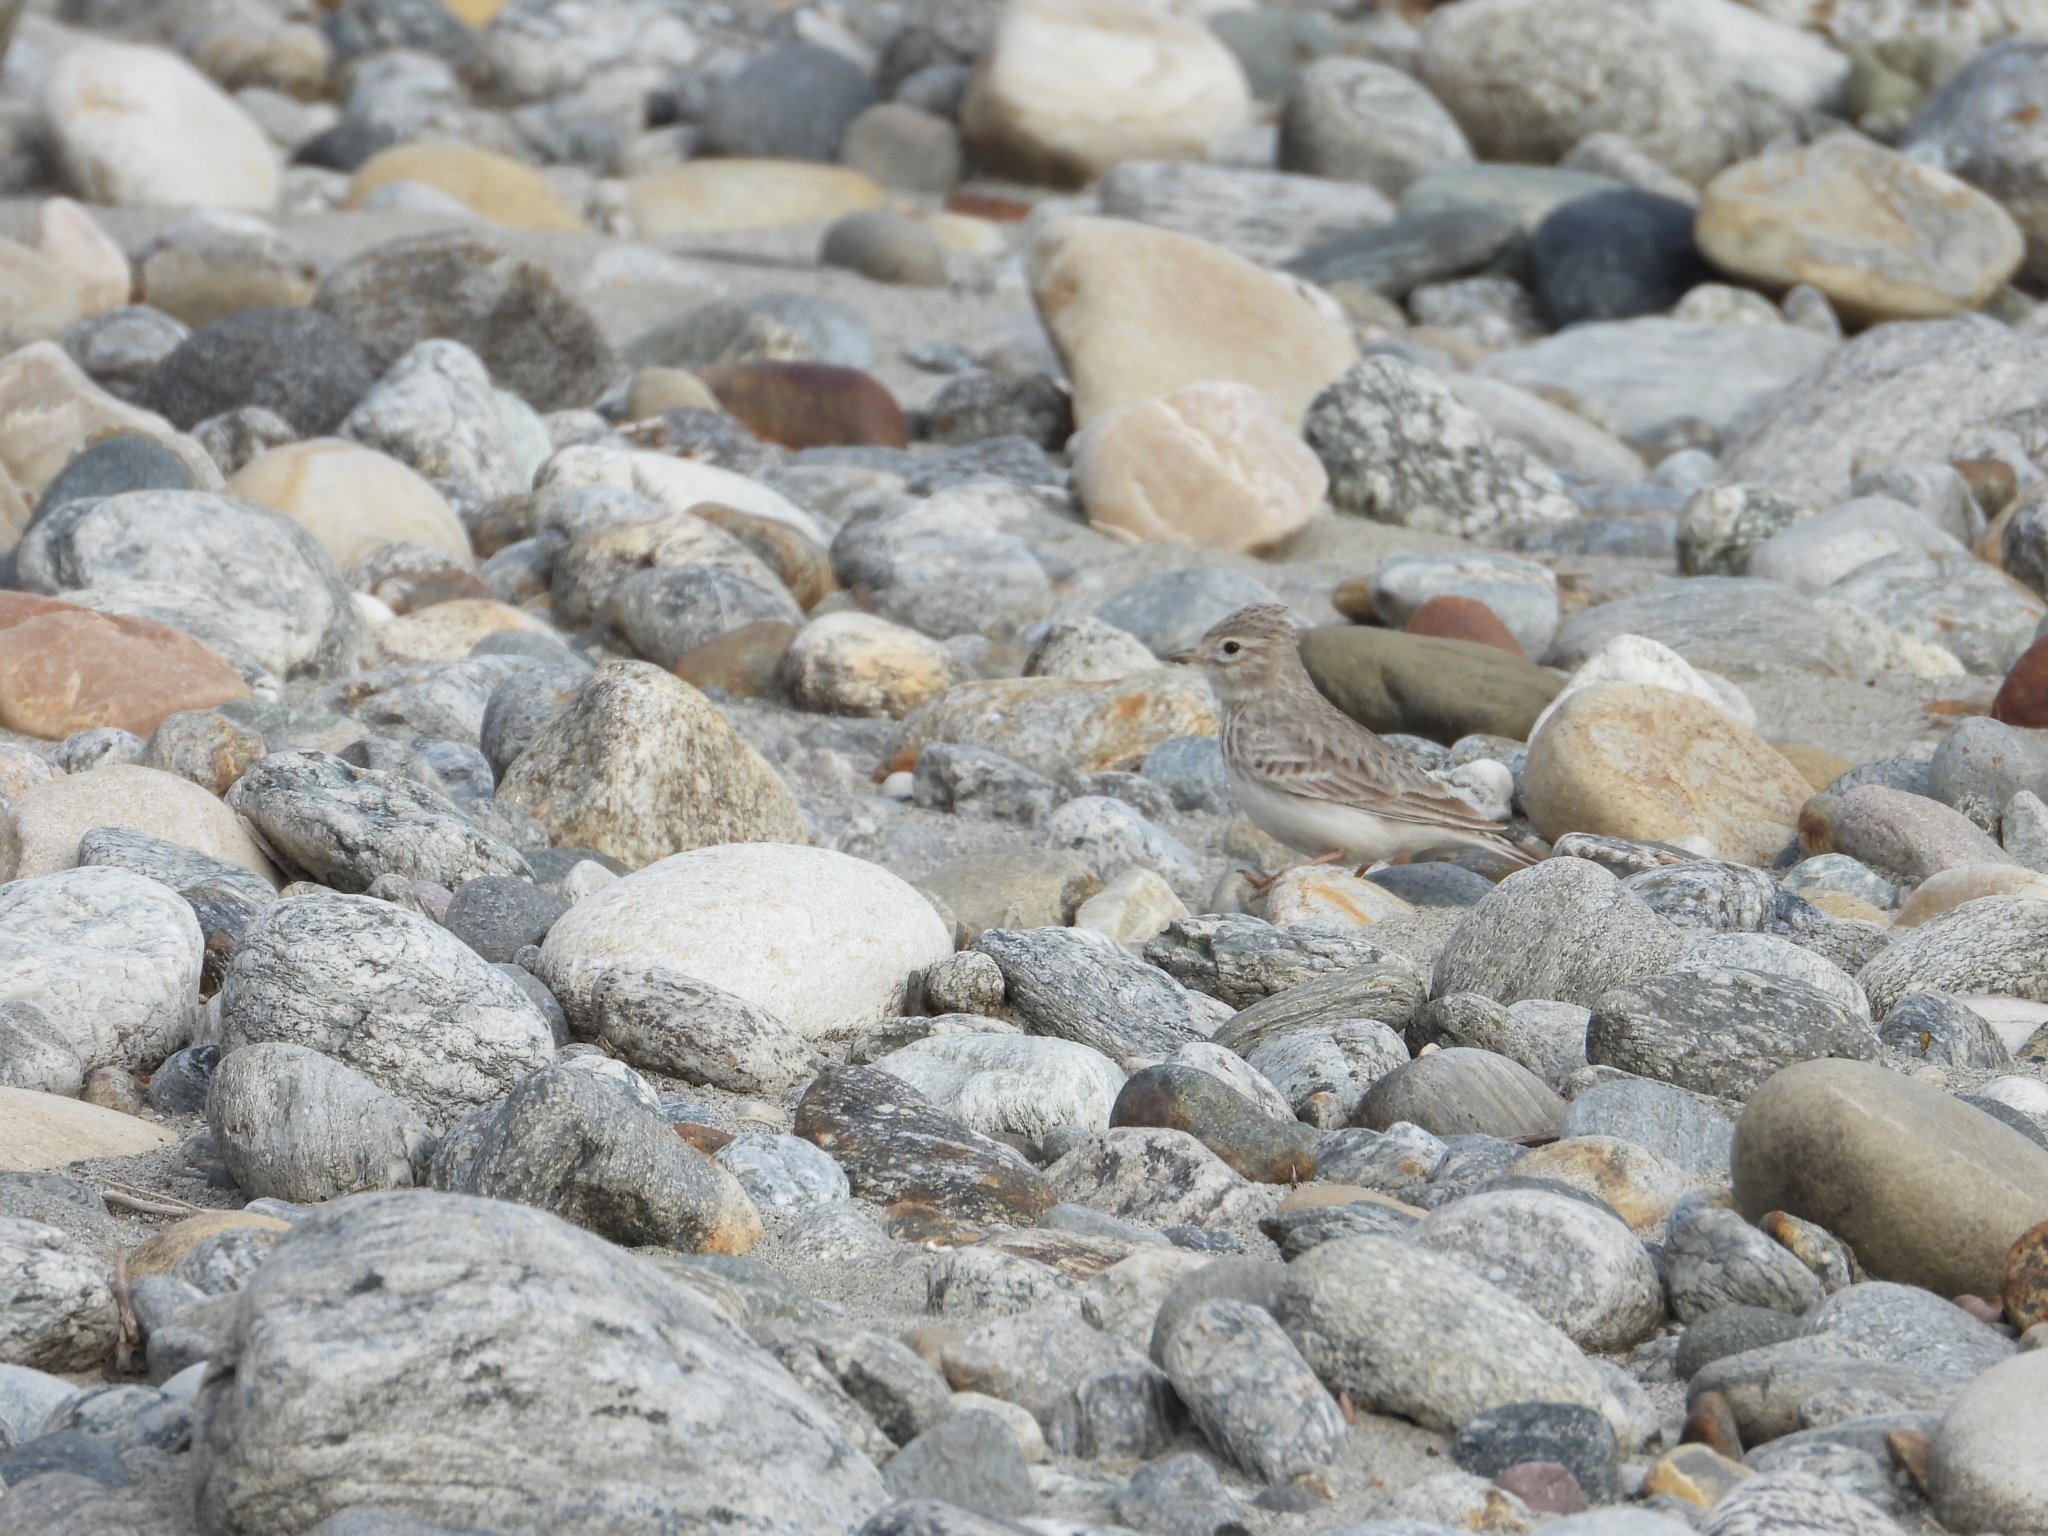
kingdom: Animalia
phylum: Chordata
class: Aves
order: Passeriformes
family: Alaudidae
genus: Calandrella
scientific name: Calandrella raytal
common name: Sand lark
